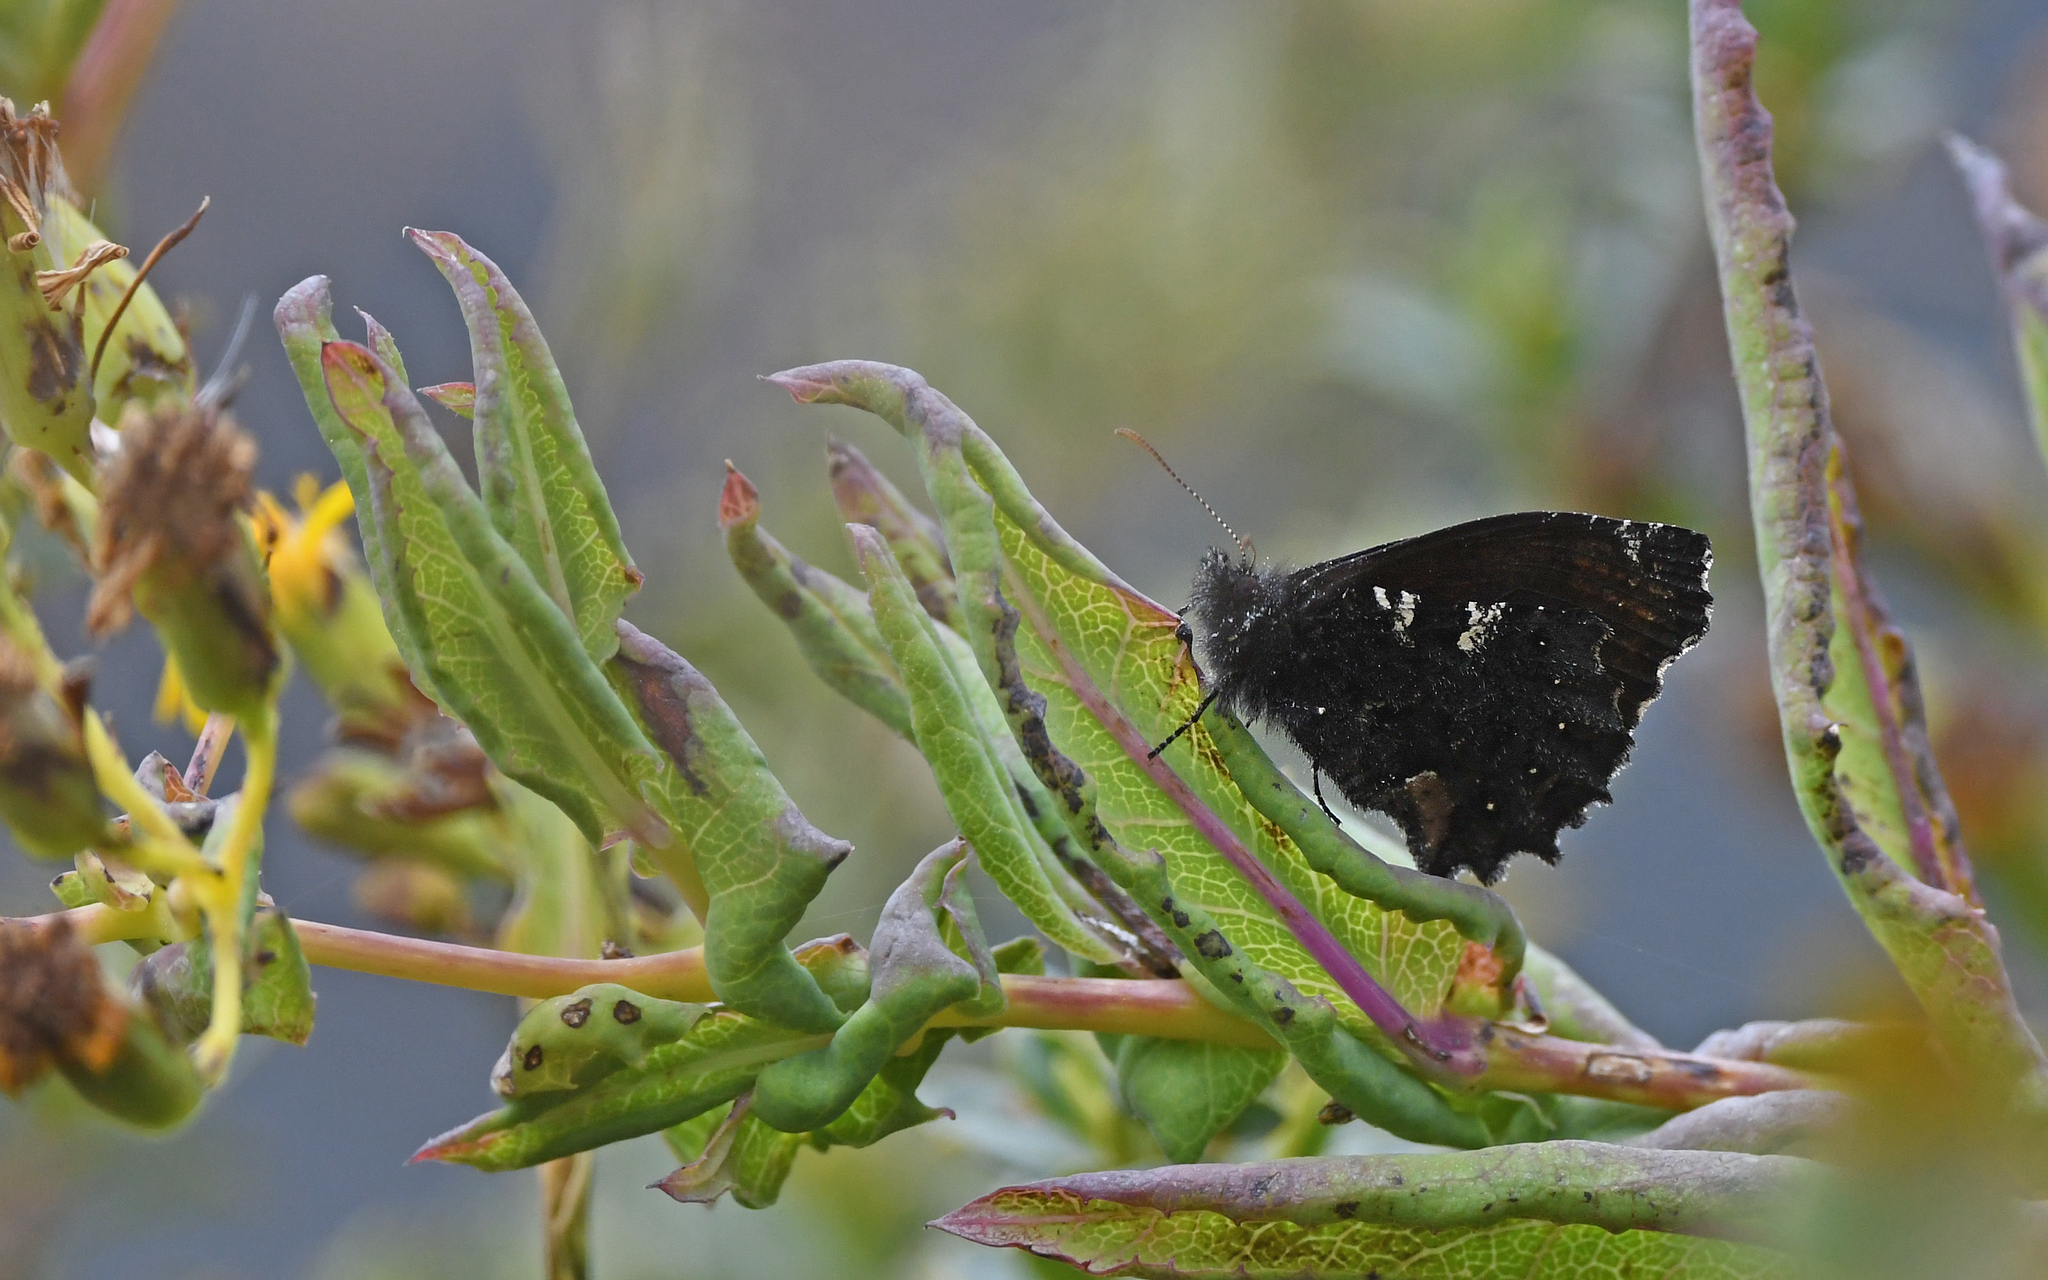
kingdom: Animalia
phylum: Arthropoda
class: Insecta
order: Lepidoptera
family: Nymphalidae
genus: Steremnia
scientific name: Steremnia monachella
